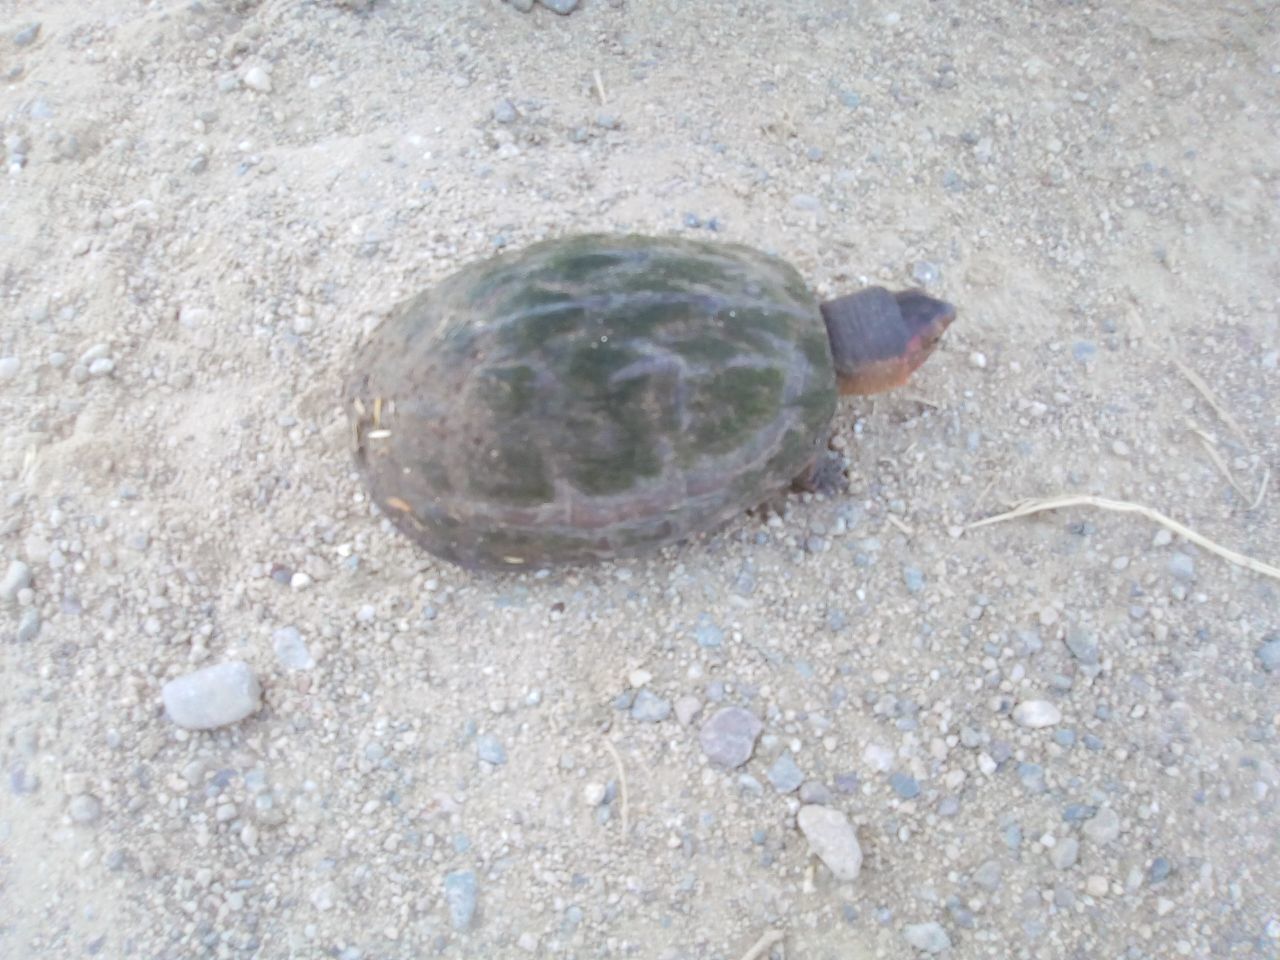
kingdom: Animalia
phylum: Chordata
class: Testudines
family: Kinosternidae
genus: Kinosternon
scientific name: Kinosternon scorpioides
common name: Scorpion mud turtle
